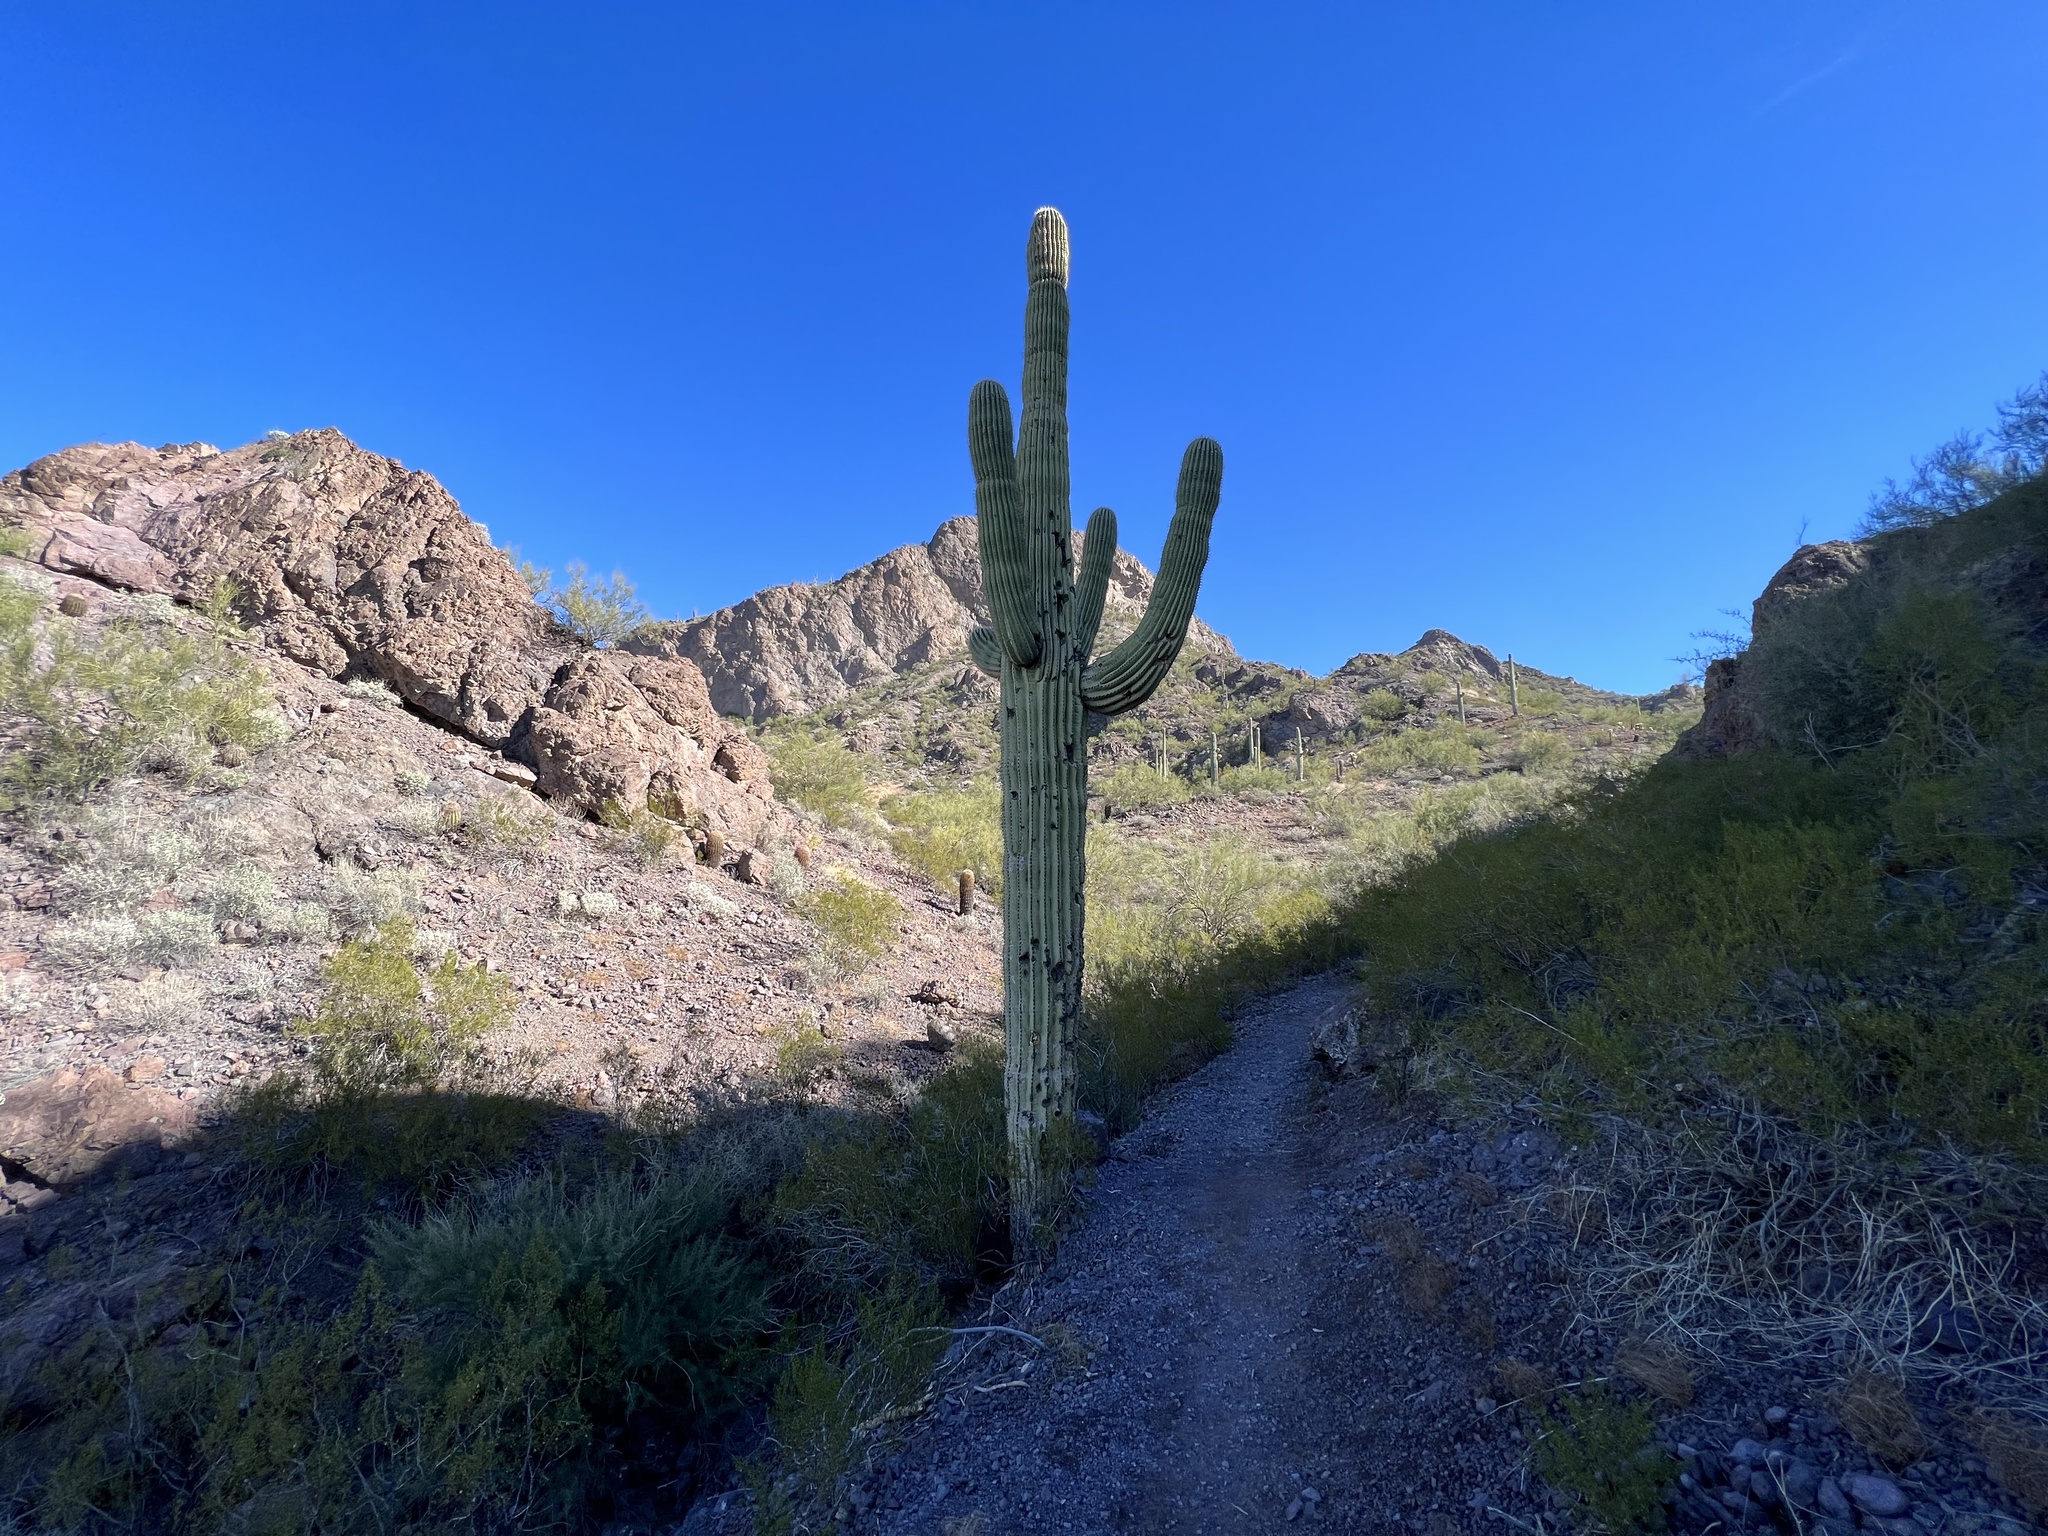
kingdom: Plantae
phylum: Tracheophyta
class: Magnoliopsida
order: Caryophyllales
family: Cactaceae
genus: Carnegiea
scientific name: Carnegiea gigantea
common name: Saguaro
